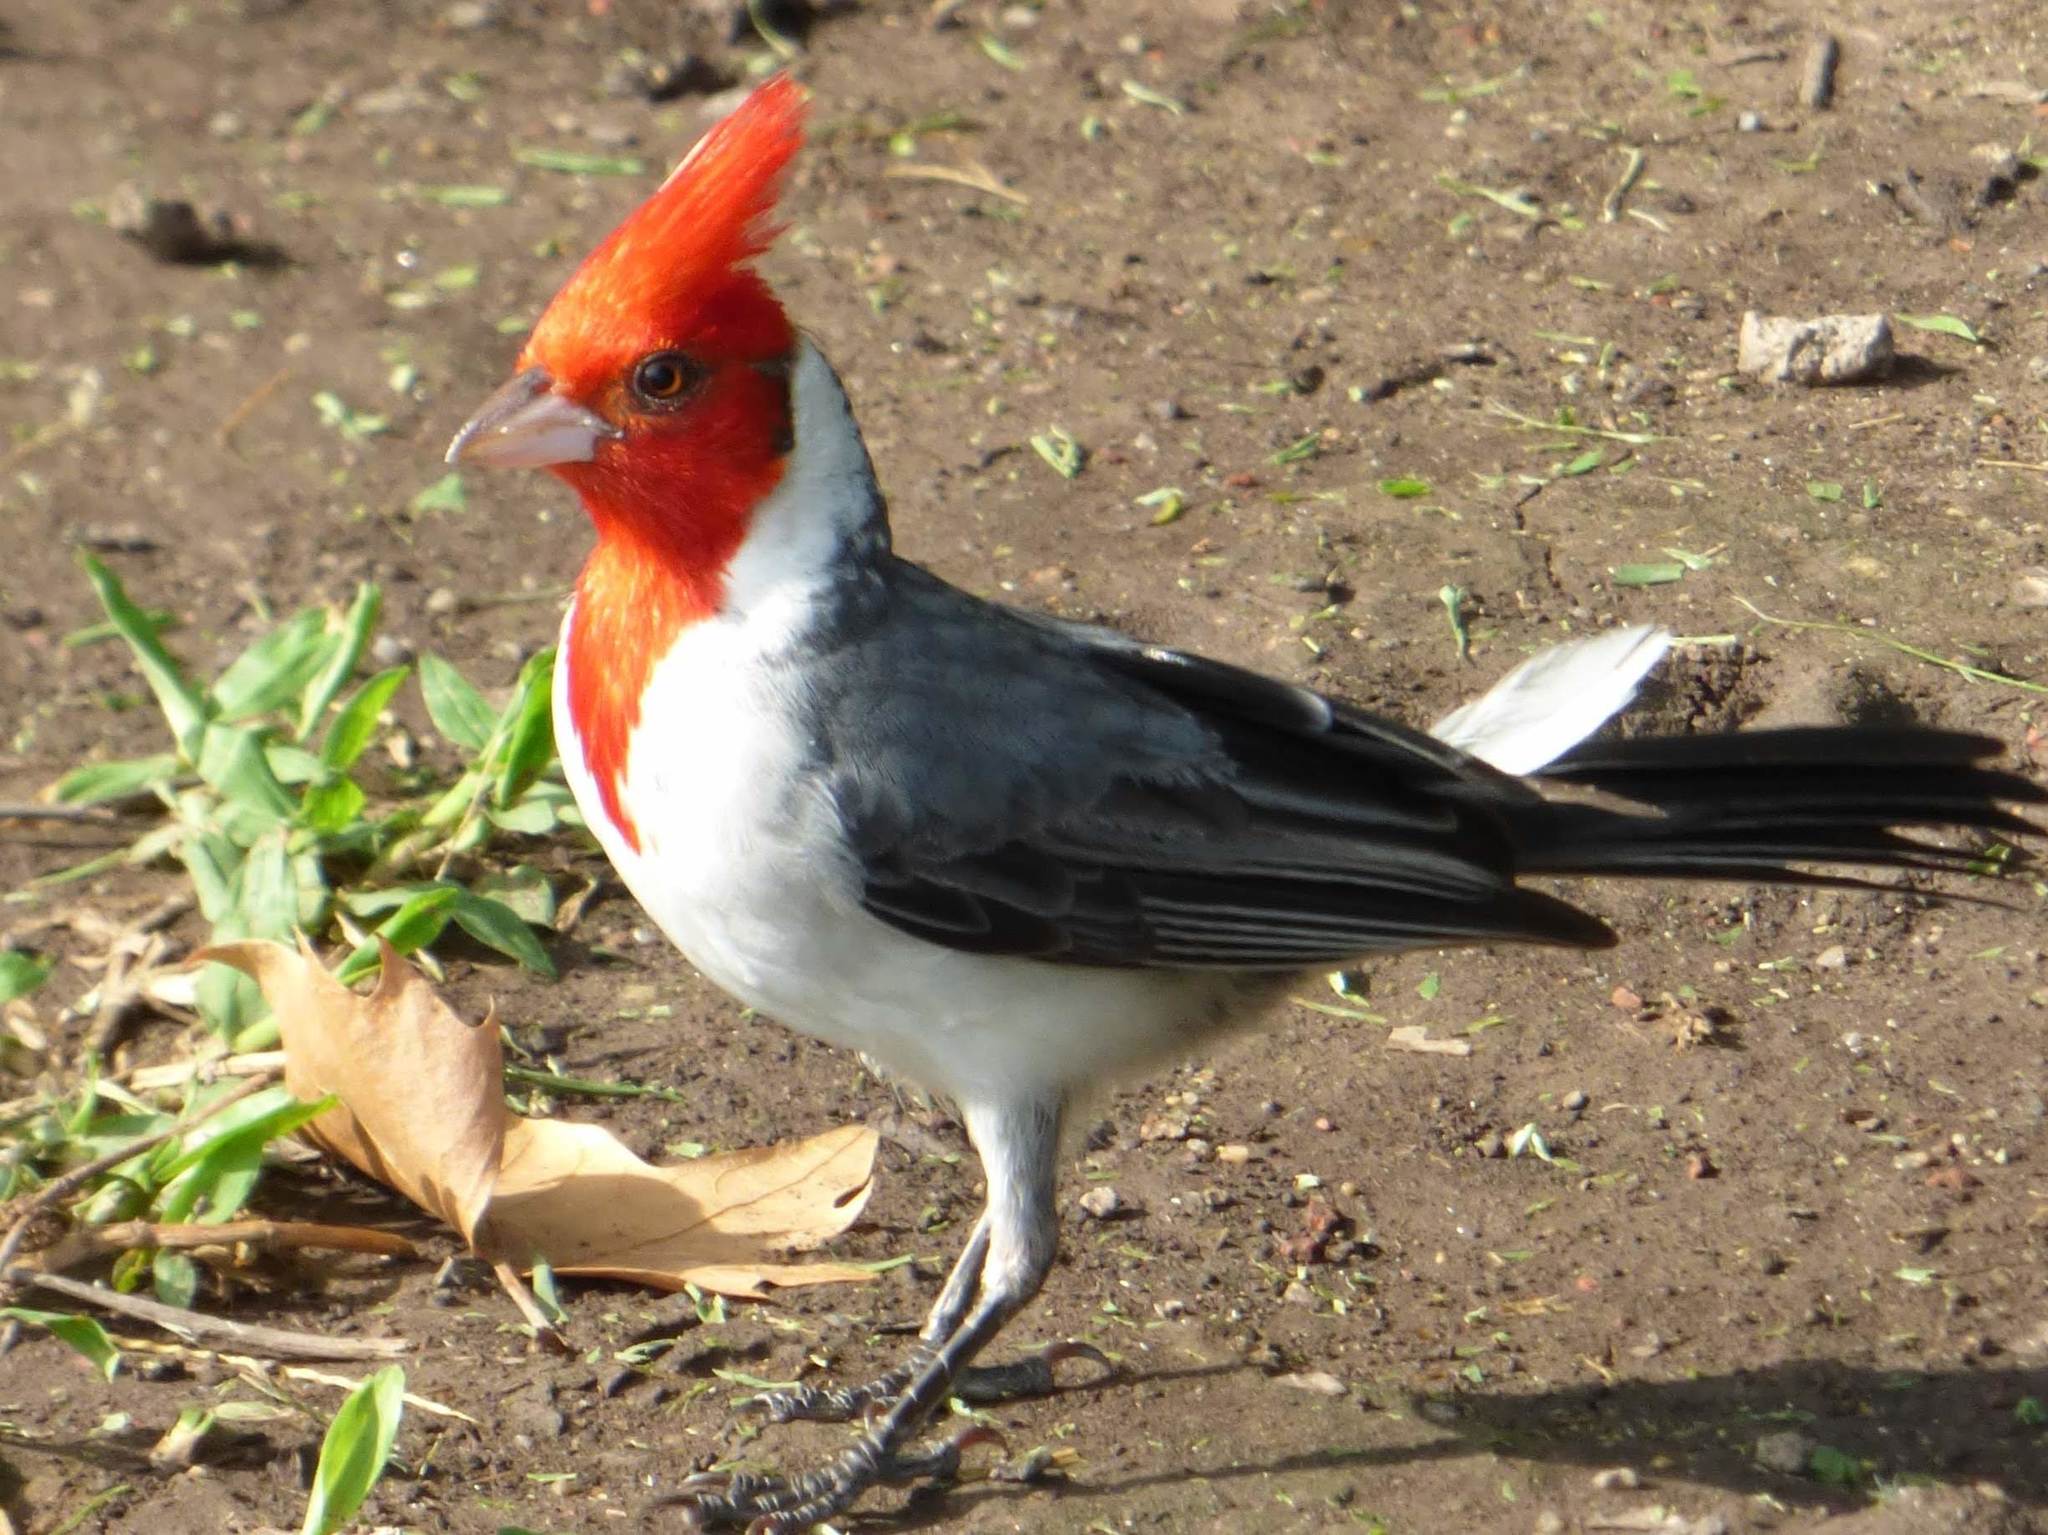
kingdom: Animalia
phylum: Chordata
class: Aves
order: Passeriformes
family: Thraupidae
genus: Paroaria
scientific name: Paroaria coronata
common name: Red-crested cardinal
